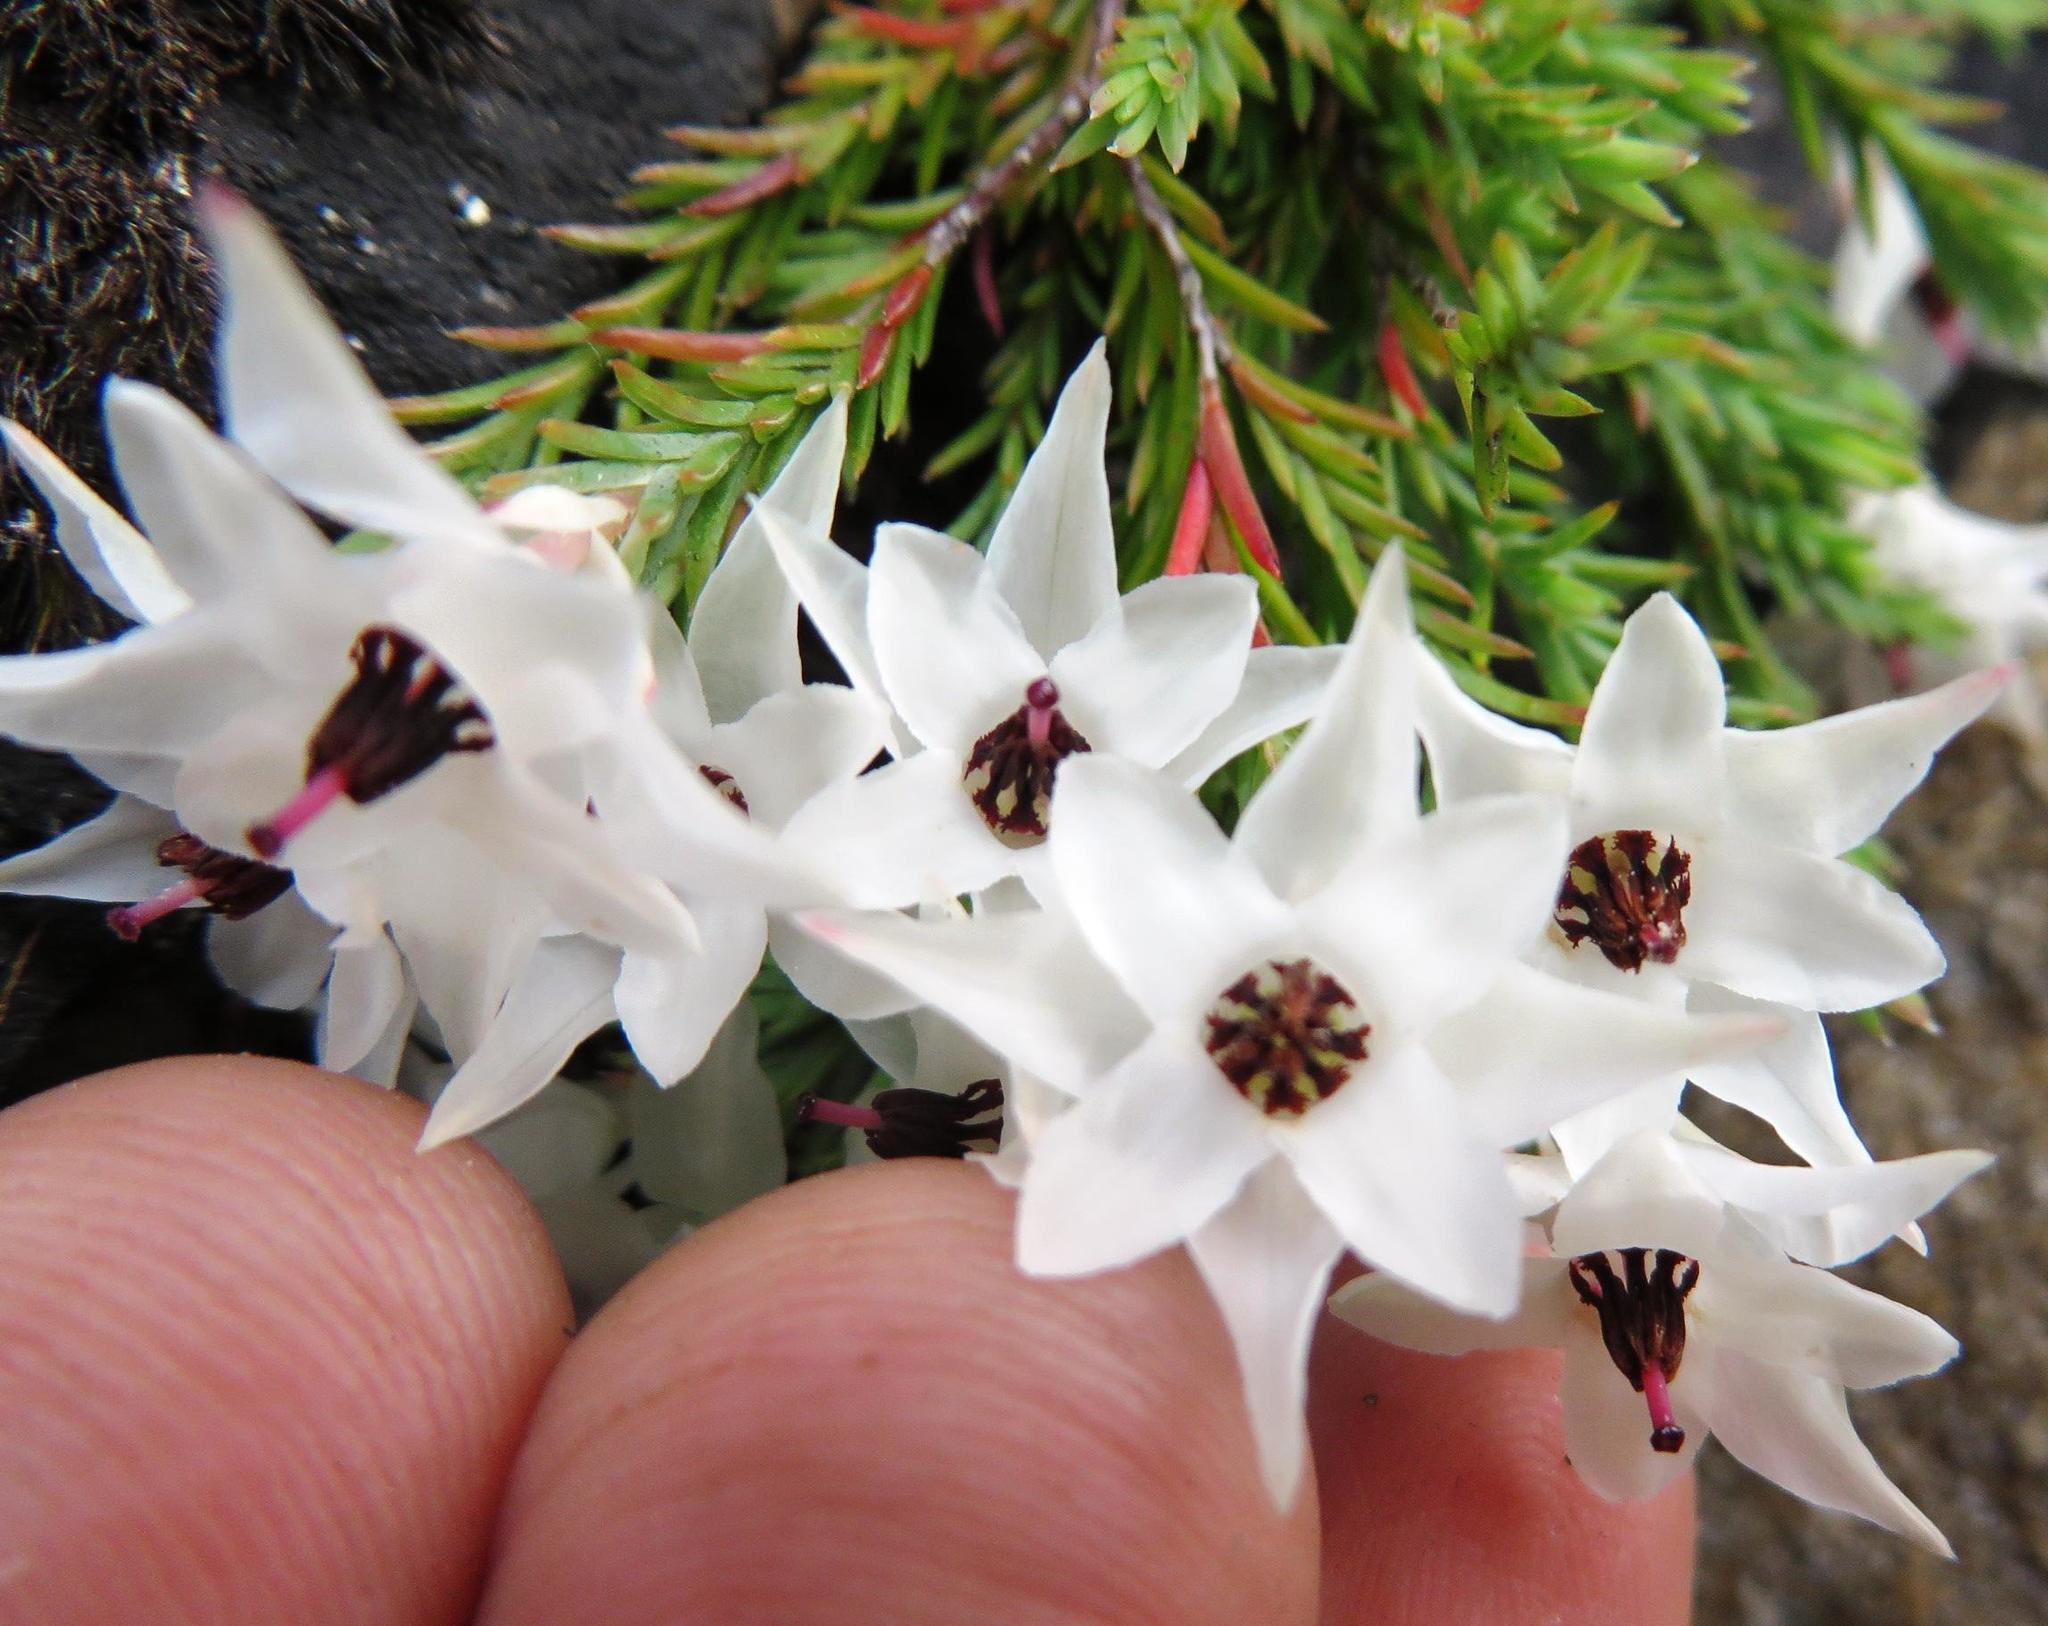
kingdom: Plantae
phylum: Tracheophyta
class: Magnoliopsida
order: Ericales
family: Ericaceae
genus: Erica
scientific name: Erica galgebergensis
